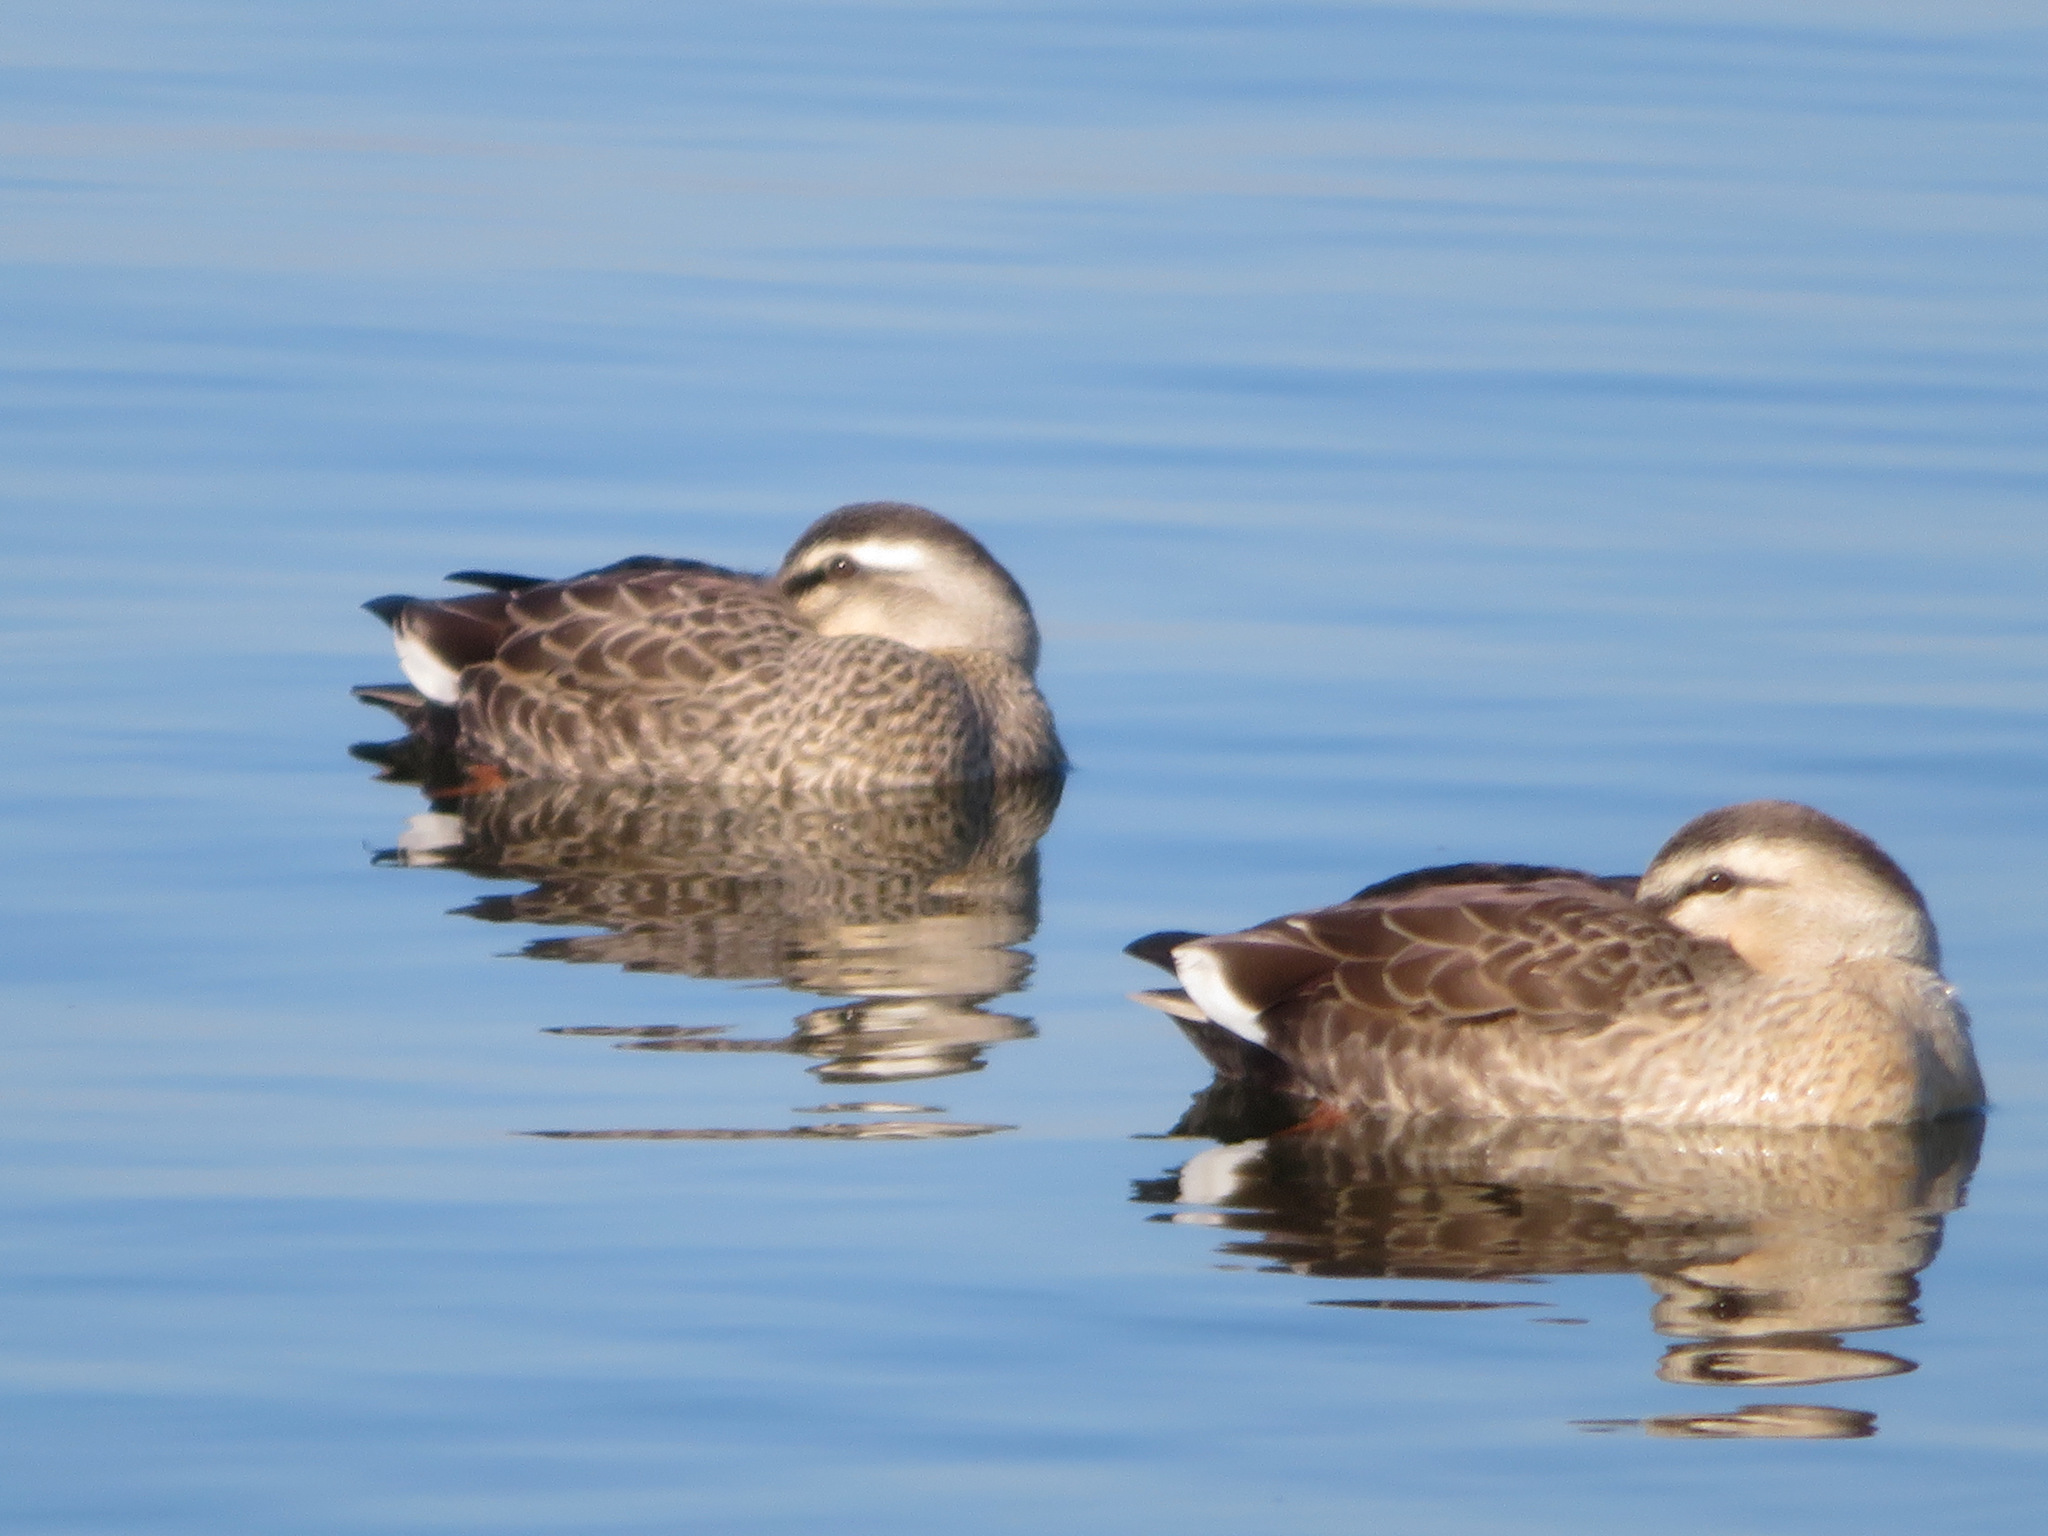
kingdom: Animalia
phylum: Chordata
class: Aves
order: Anseriformes
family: Anatidae
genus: Anas
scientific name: Anas zonorhyncha
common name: Eastern spot-billed duck
